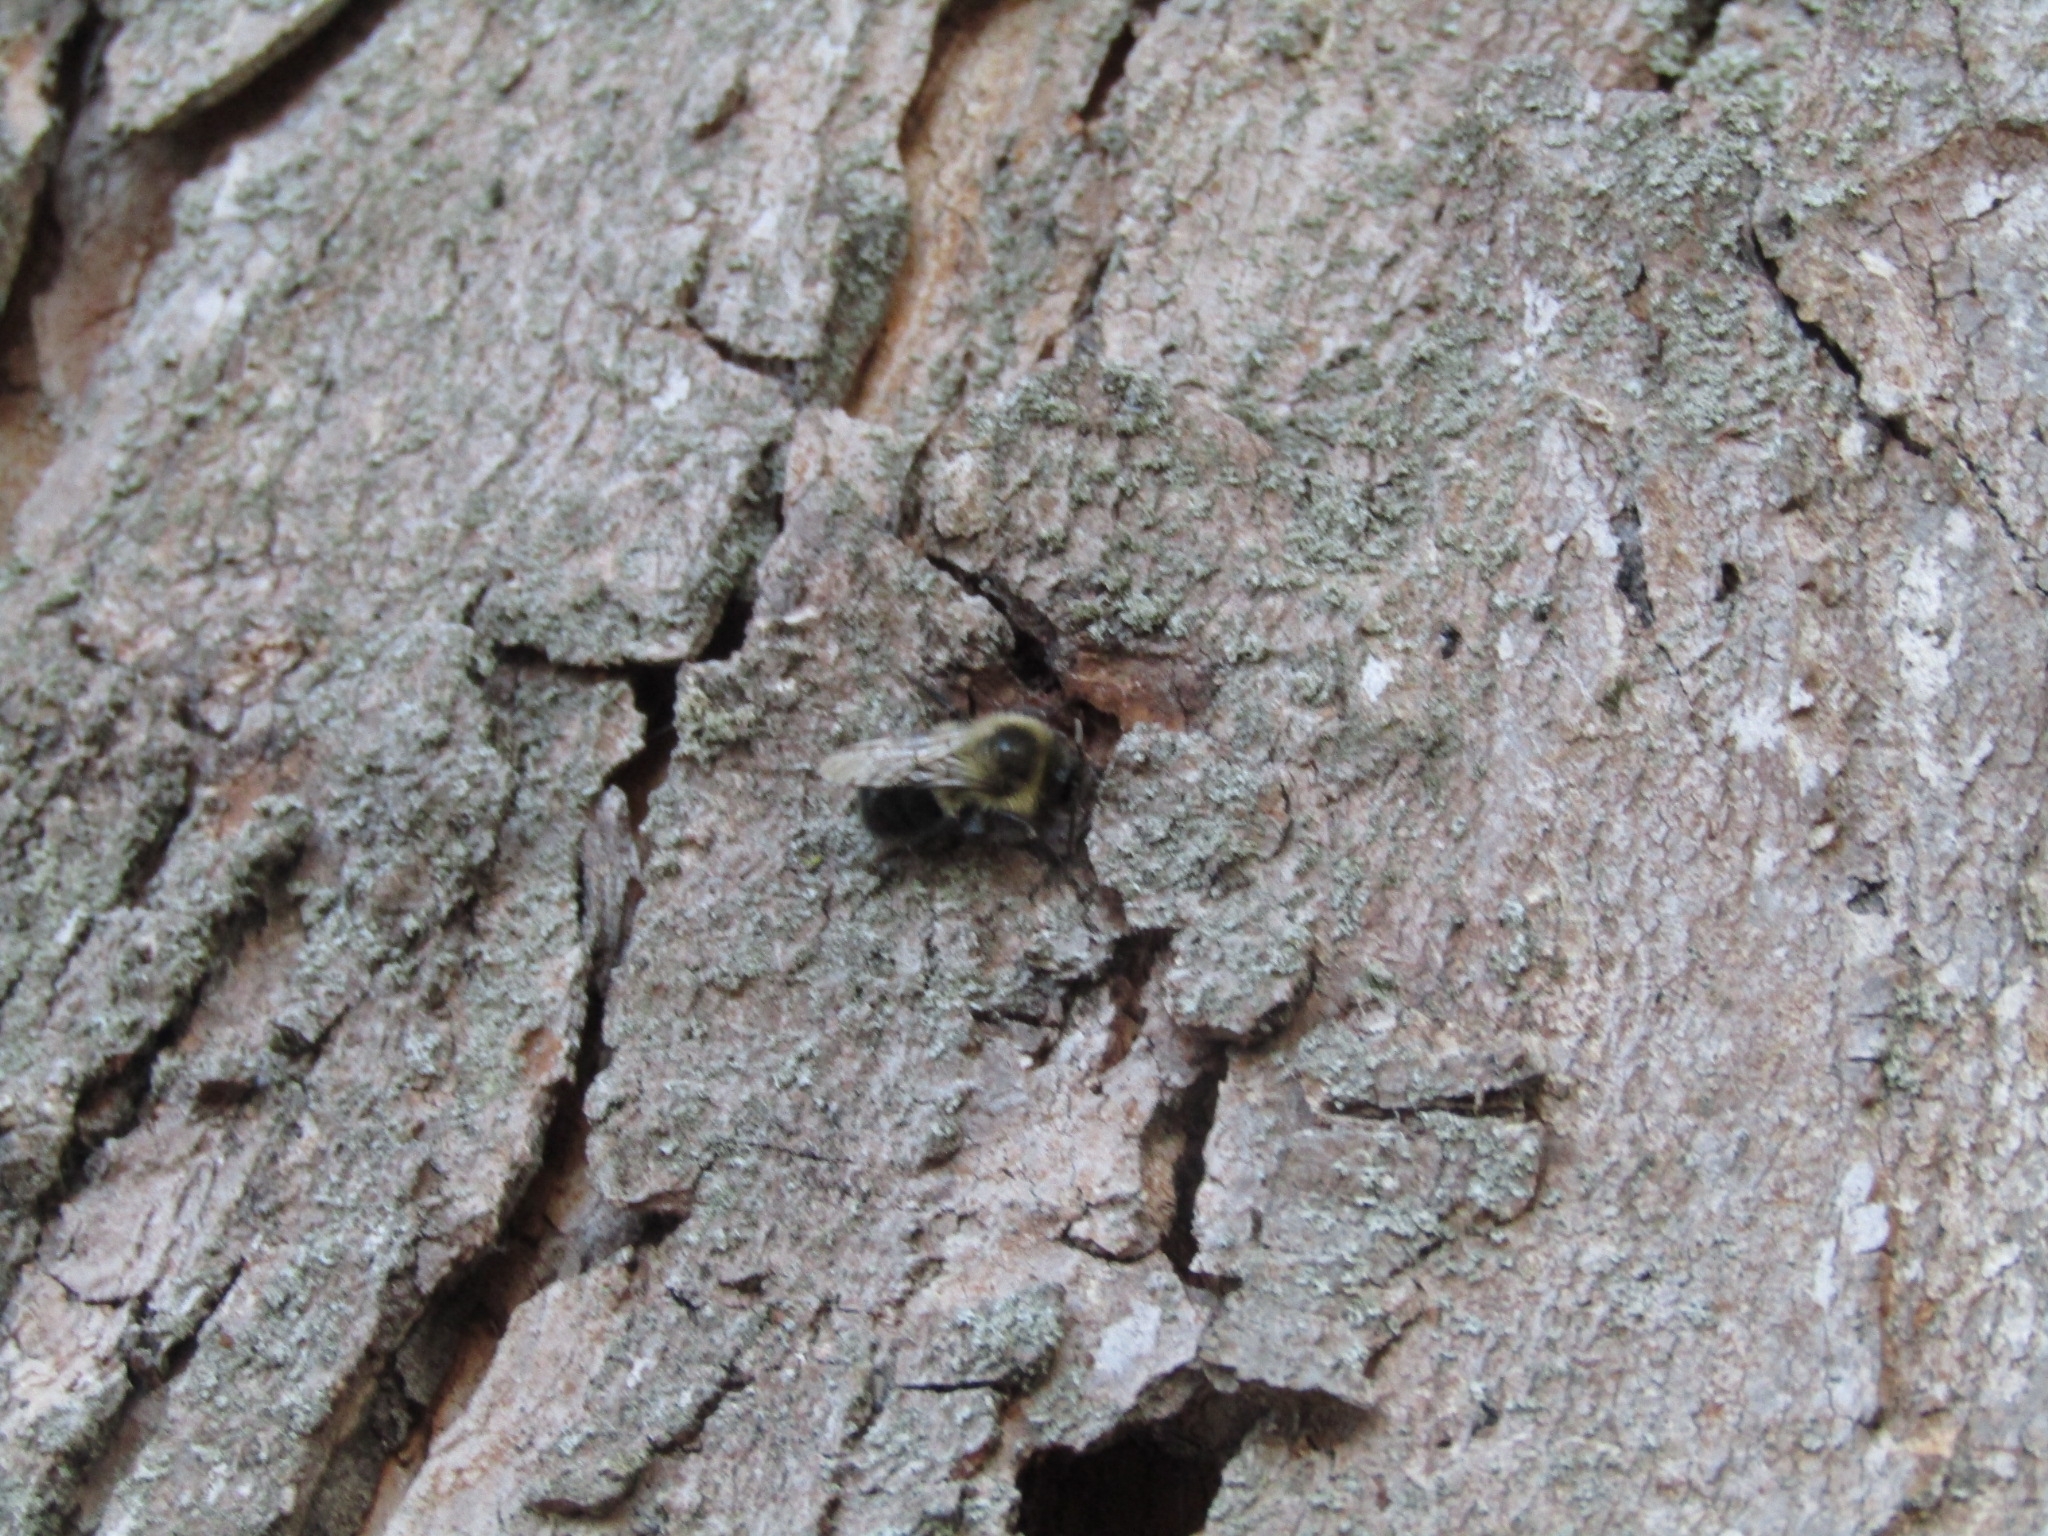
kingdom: Animalia
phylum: Arthropoda
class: Insecta
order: Hymenoptera
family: Apidae
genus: Bombus
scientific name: Bombus impatiens
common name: Common eastern bumble bee
